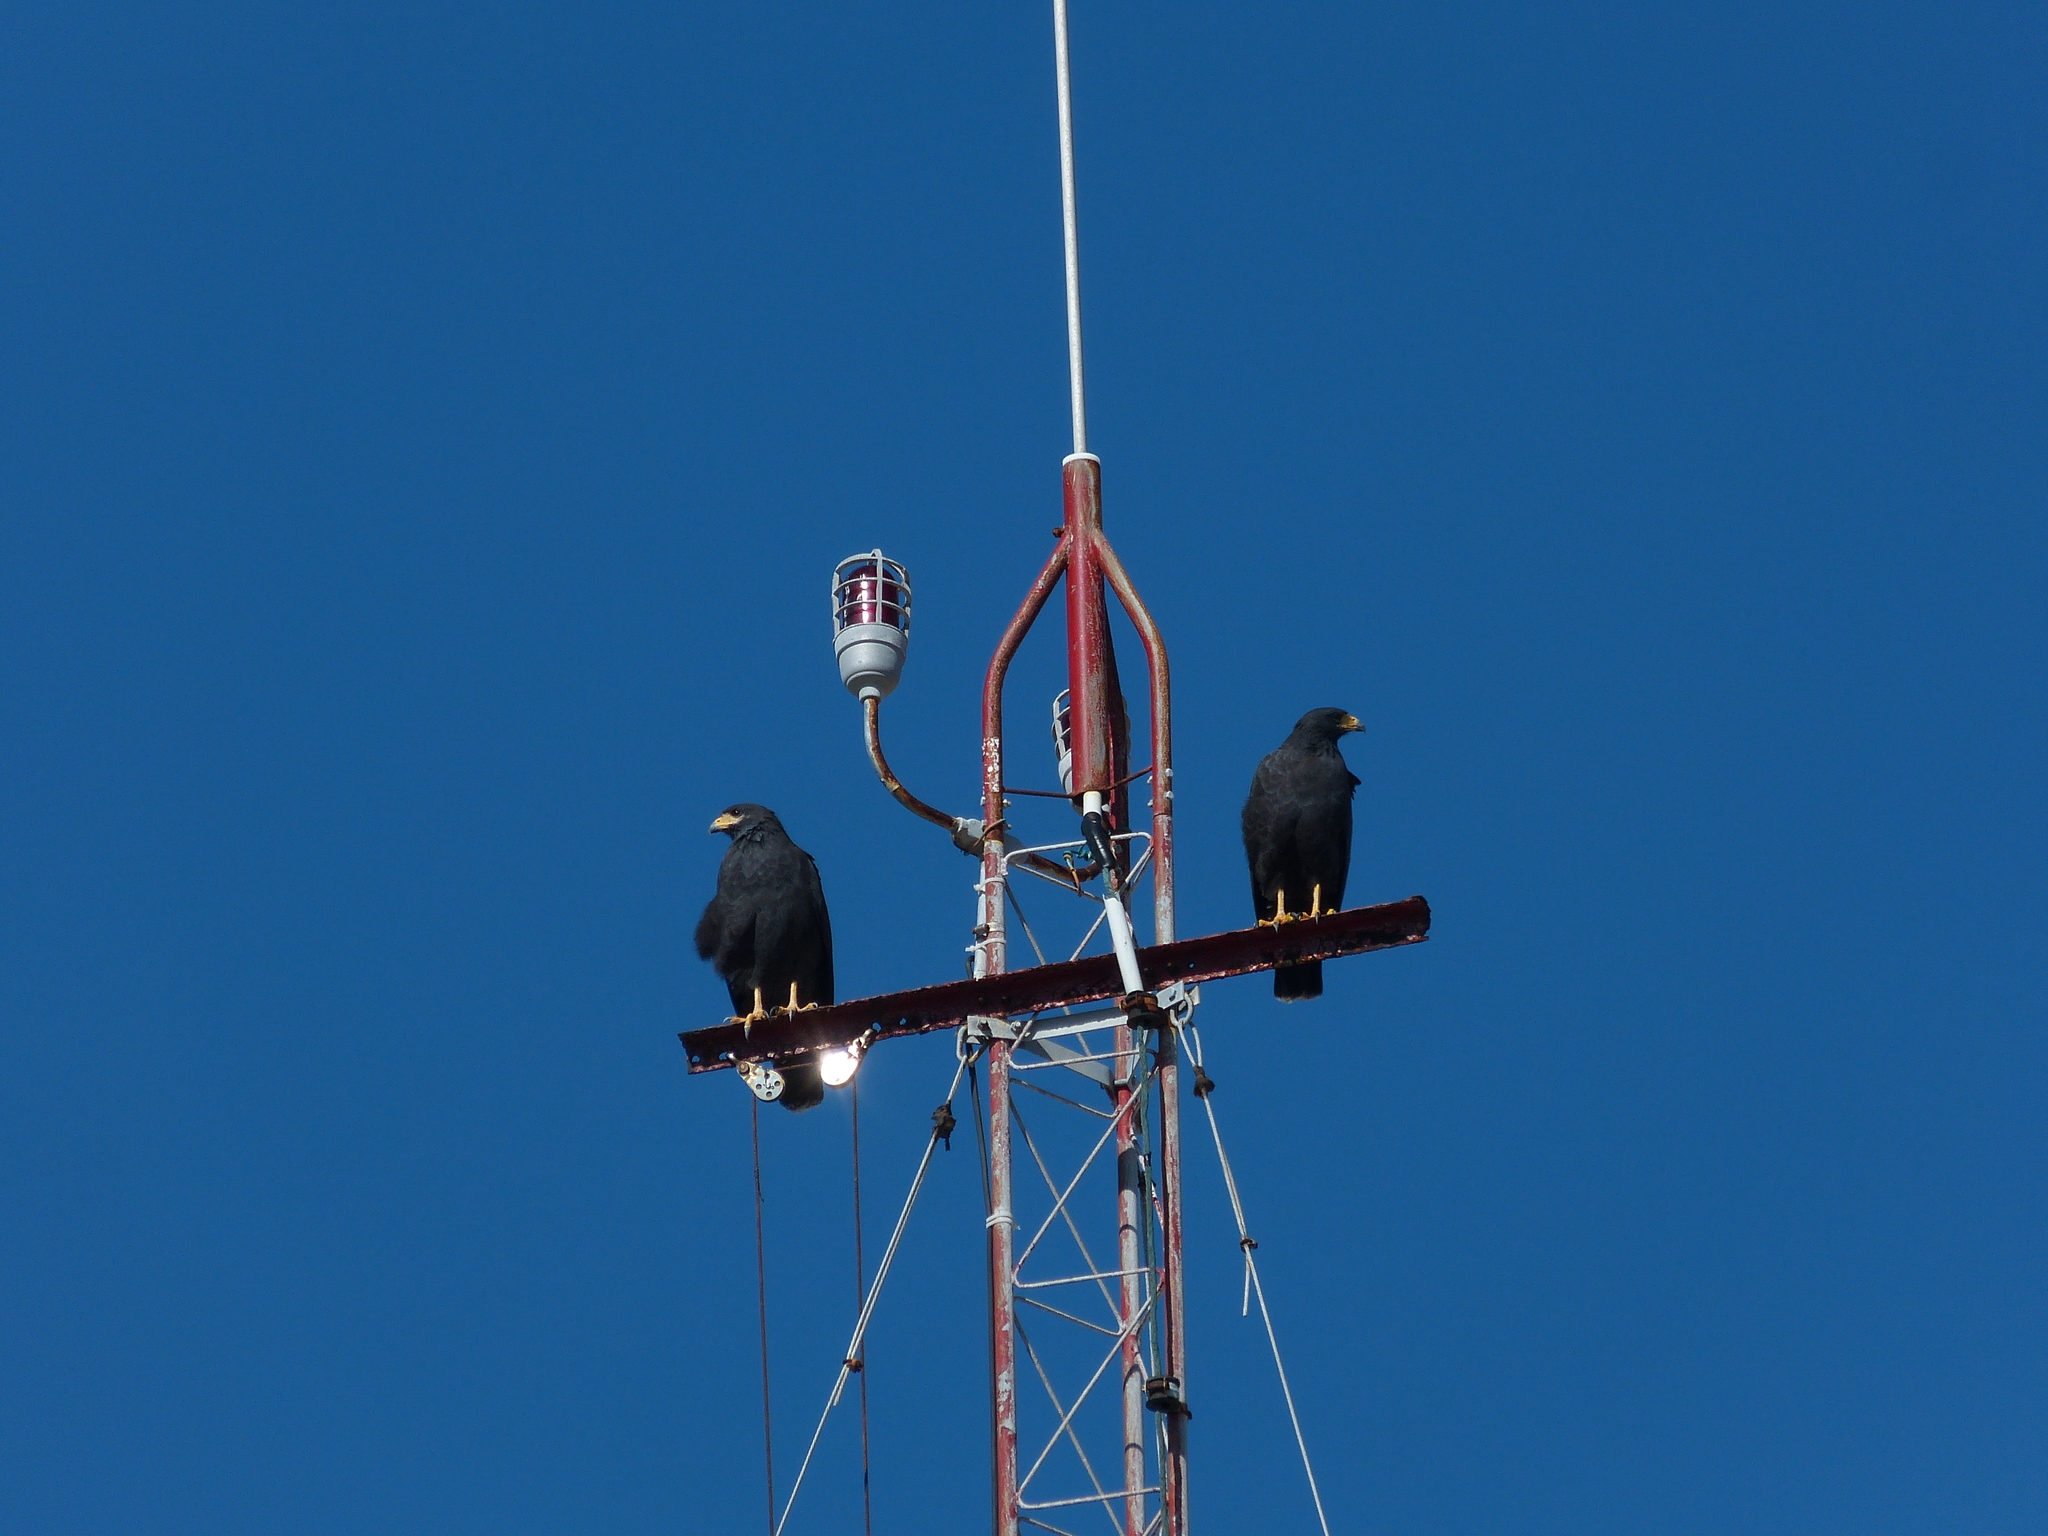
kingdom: Animalia
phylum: Chordata
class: Aves
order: Accipitriformes
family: Accipitridae
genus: Buteogallus
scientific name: Buteogallus urubitinga
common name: Great black hawk
